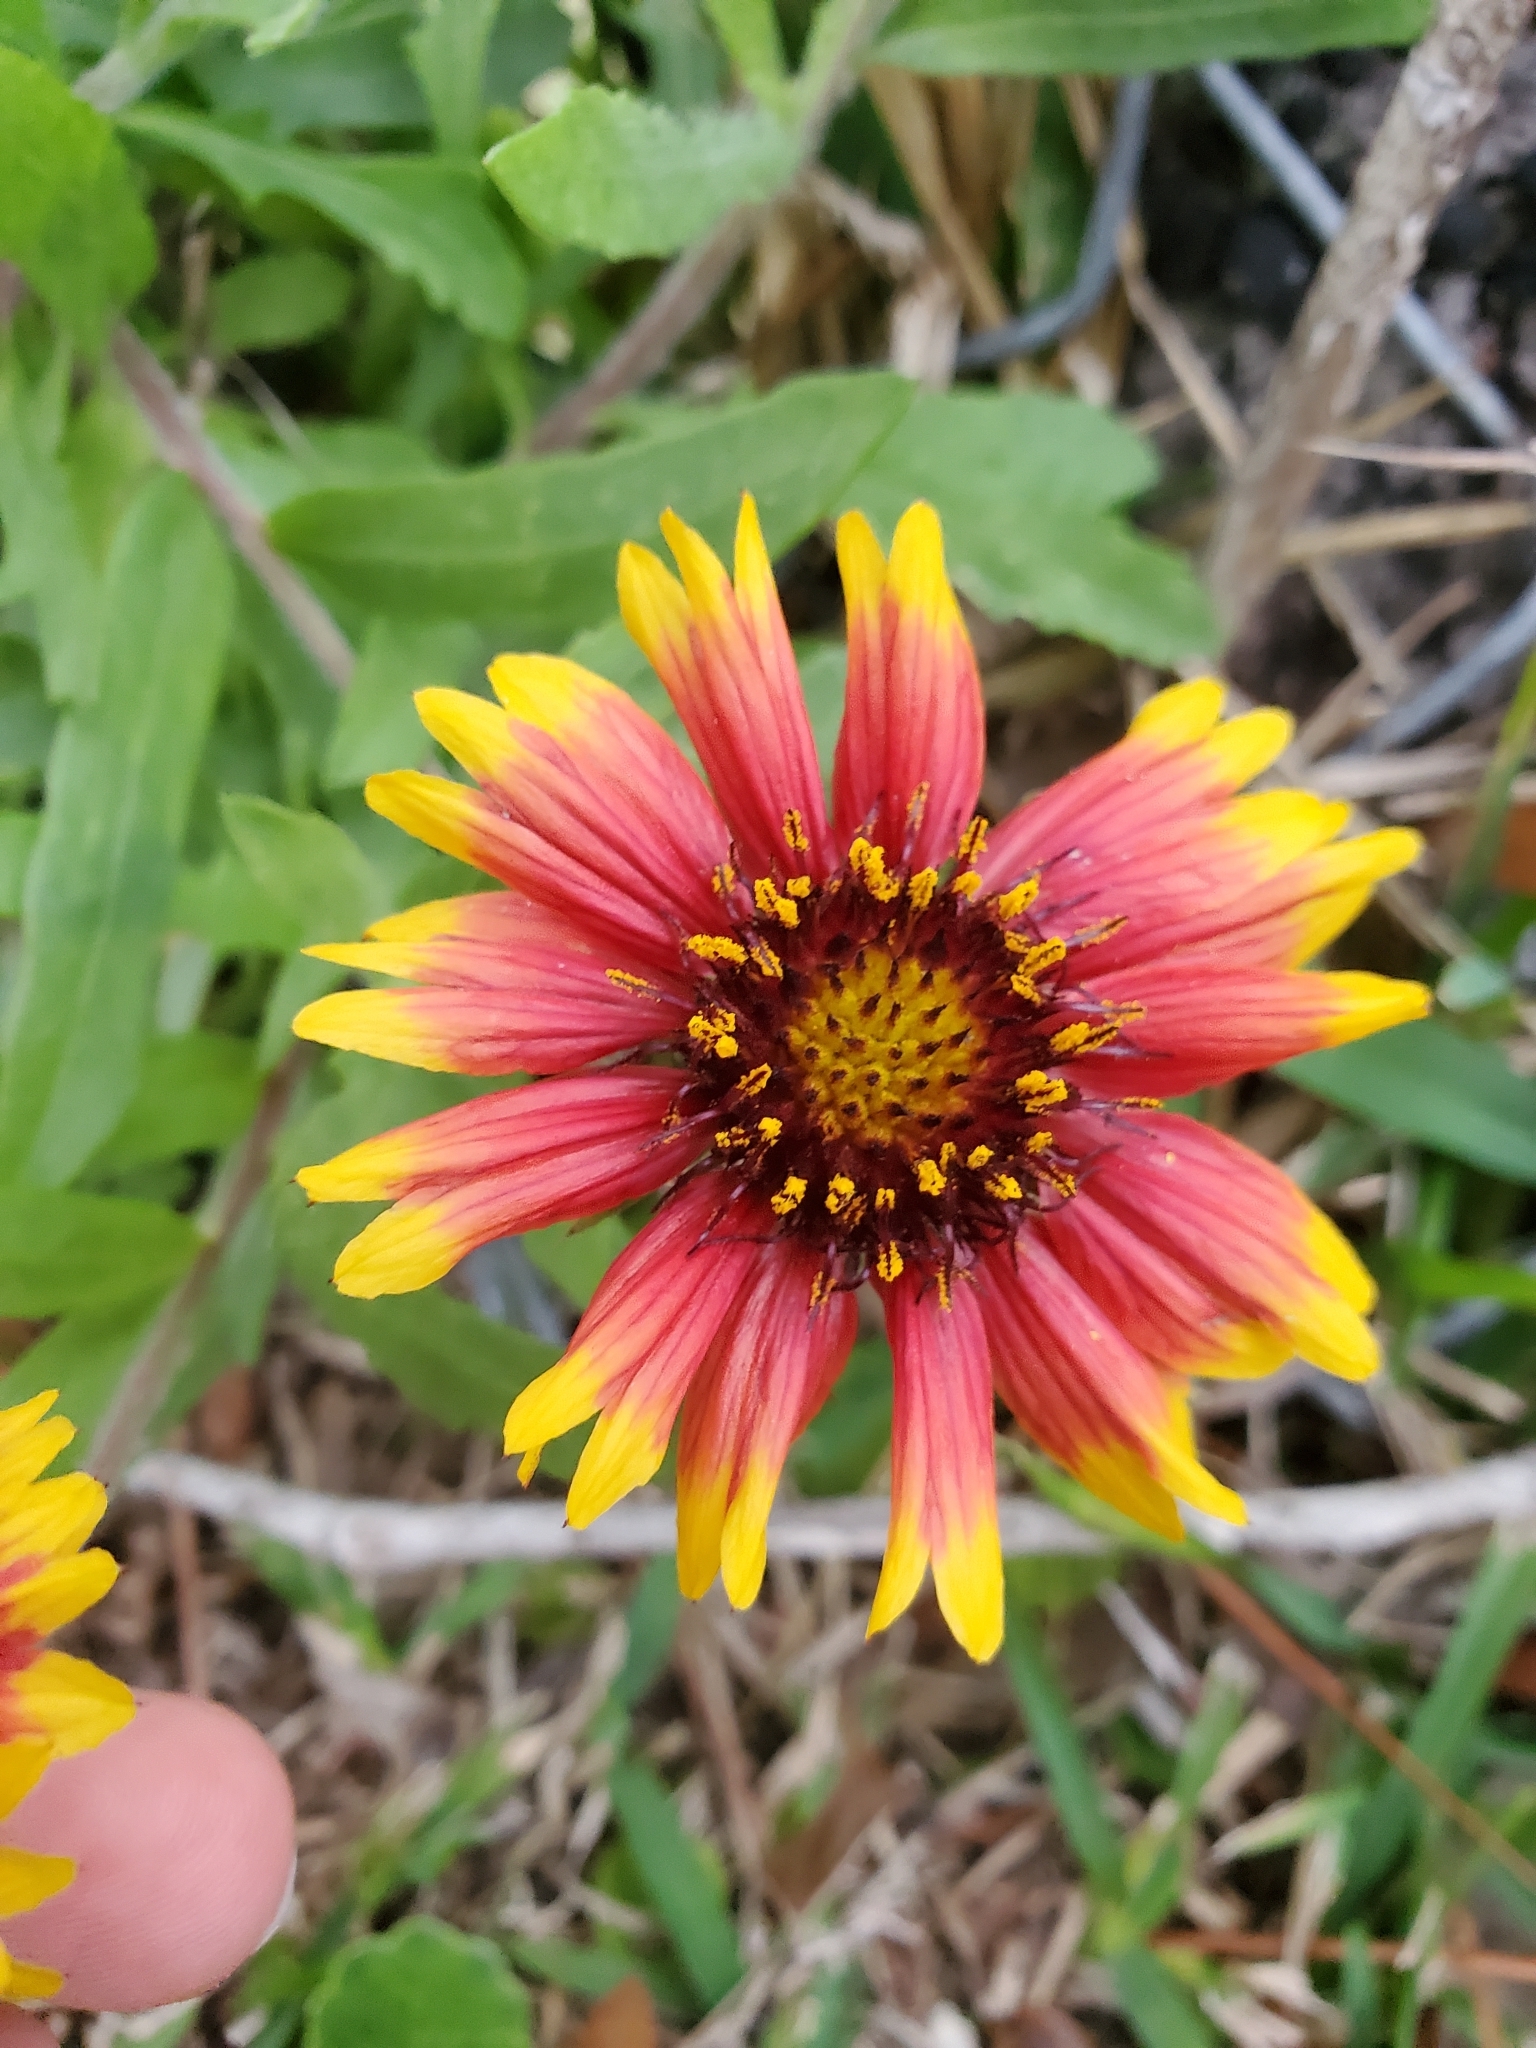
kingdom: Plantae
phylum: Tracheophyta
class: Magnoliopsida
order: Asterales
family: Asteraceae
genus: Gaillardia
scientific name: Gaillardia pulchella
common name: Firewheel
